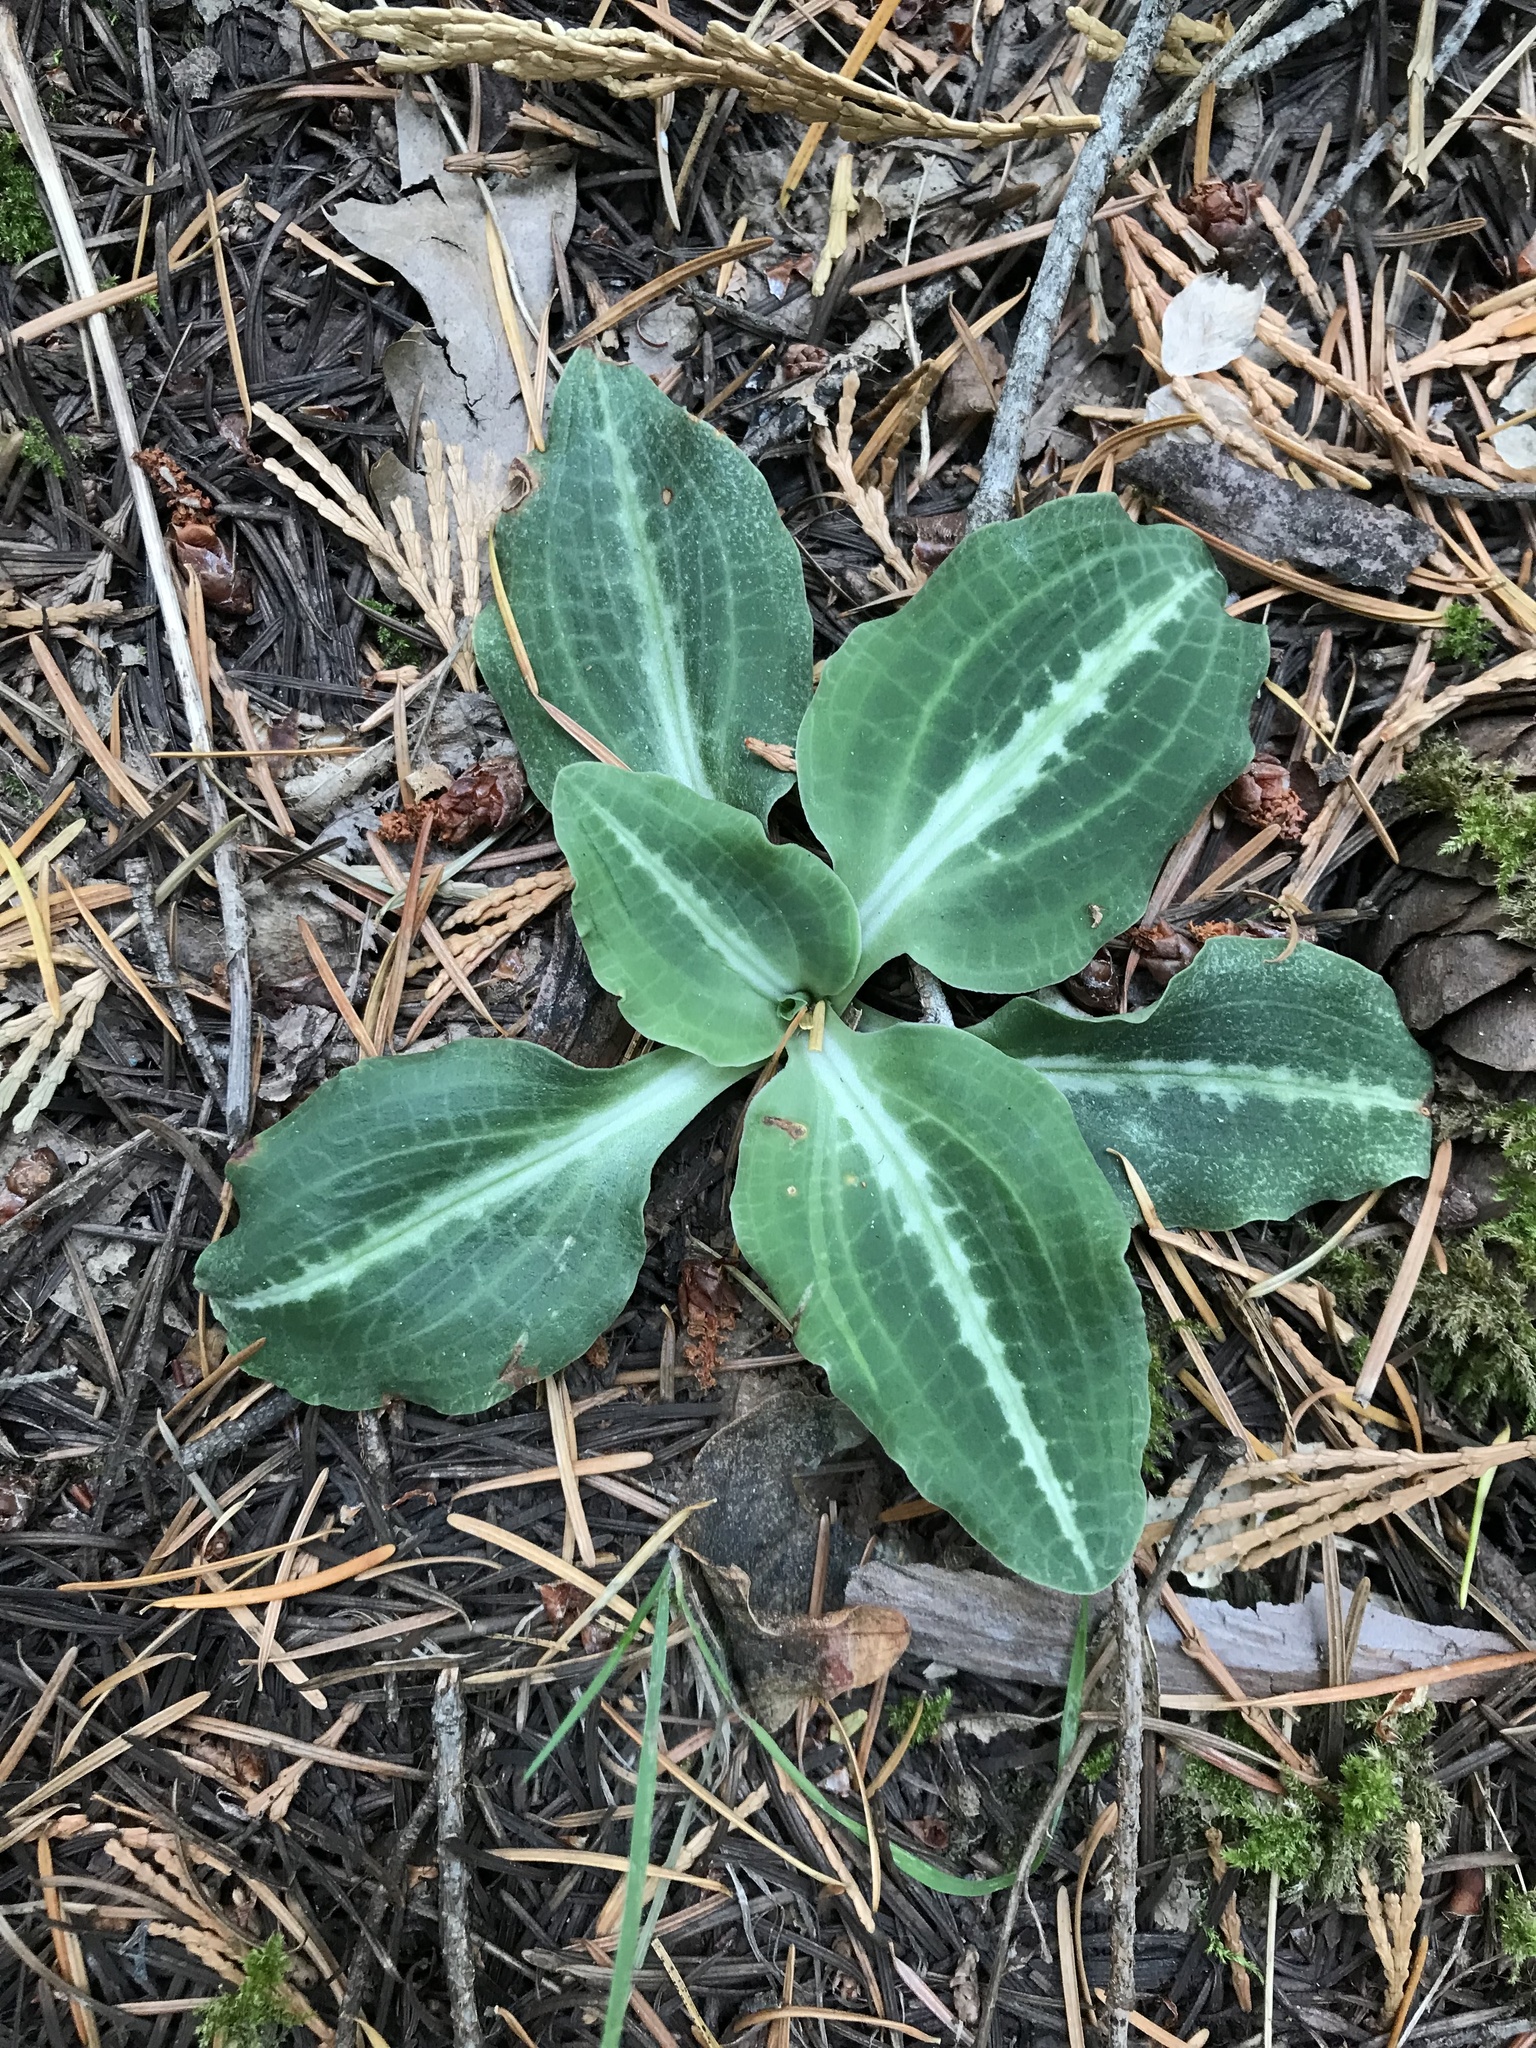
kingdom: Plantae
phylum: Tracheophyta
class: Liliopsida
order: Asparagales
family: Orchidaceae
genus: Goodyera
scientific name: Goodyera oblongifolia
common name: Giant rattlesnake-plantain
